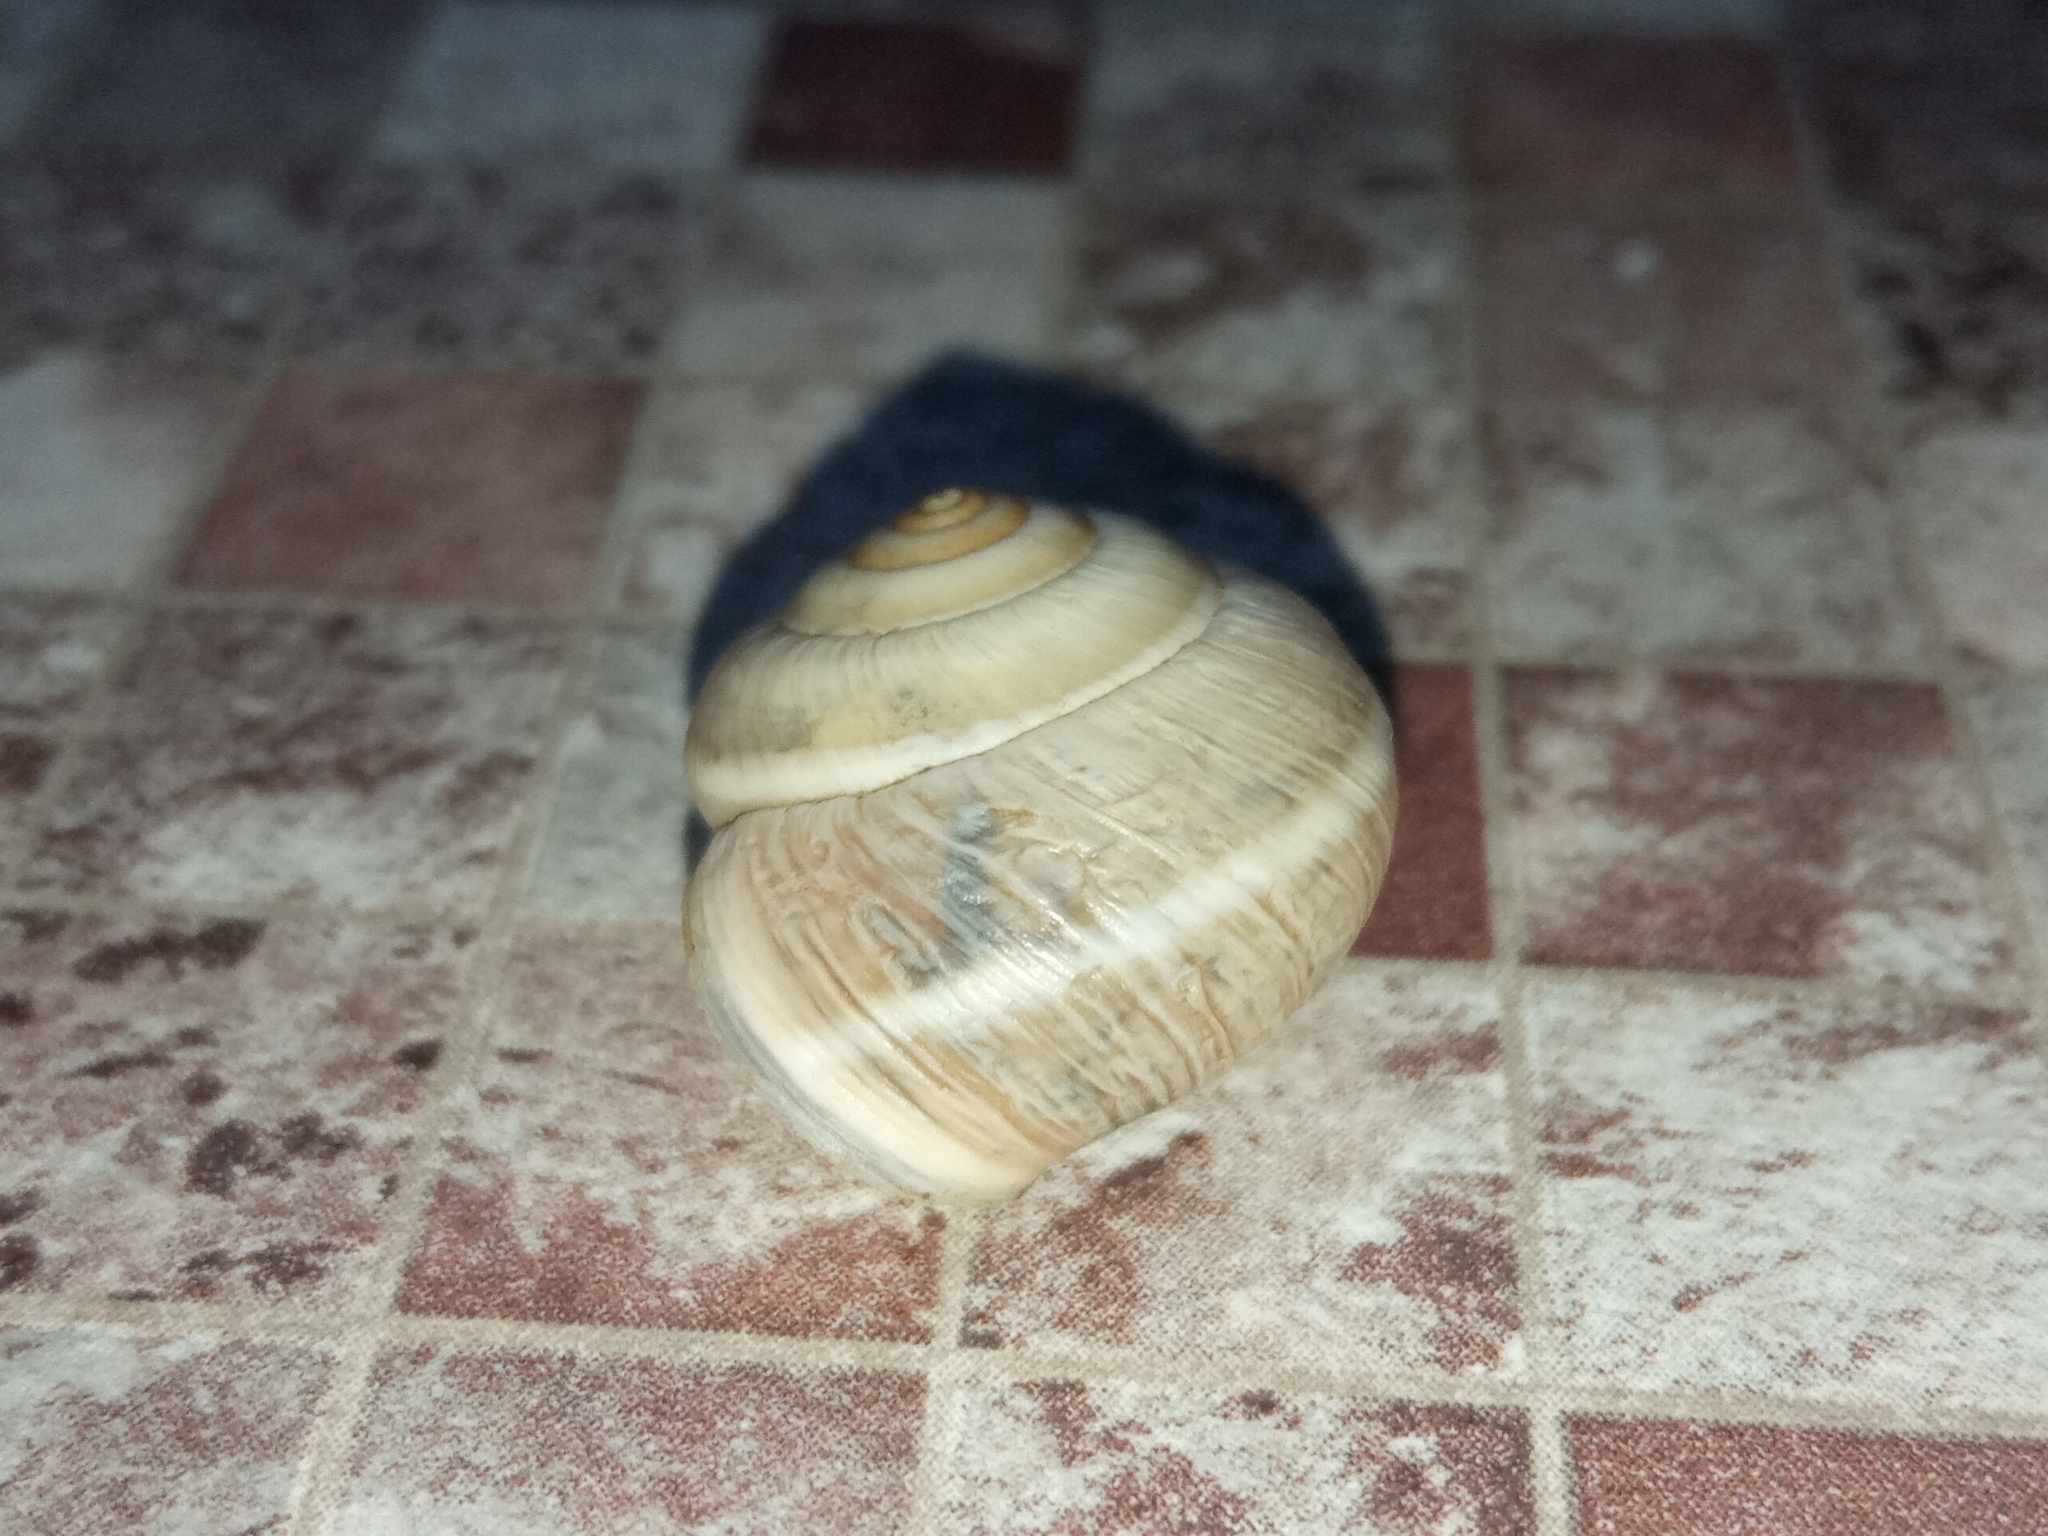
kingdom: Animalia
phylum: Mollusca
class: Gastropoda
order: Stylommatophora
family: Hygromiidae
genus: Harmozica
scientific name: Harmozica ravergiensis
